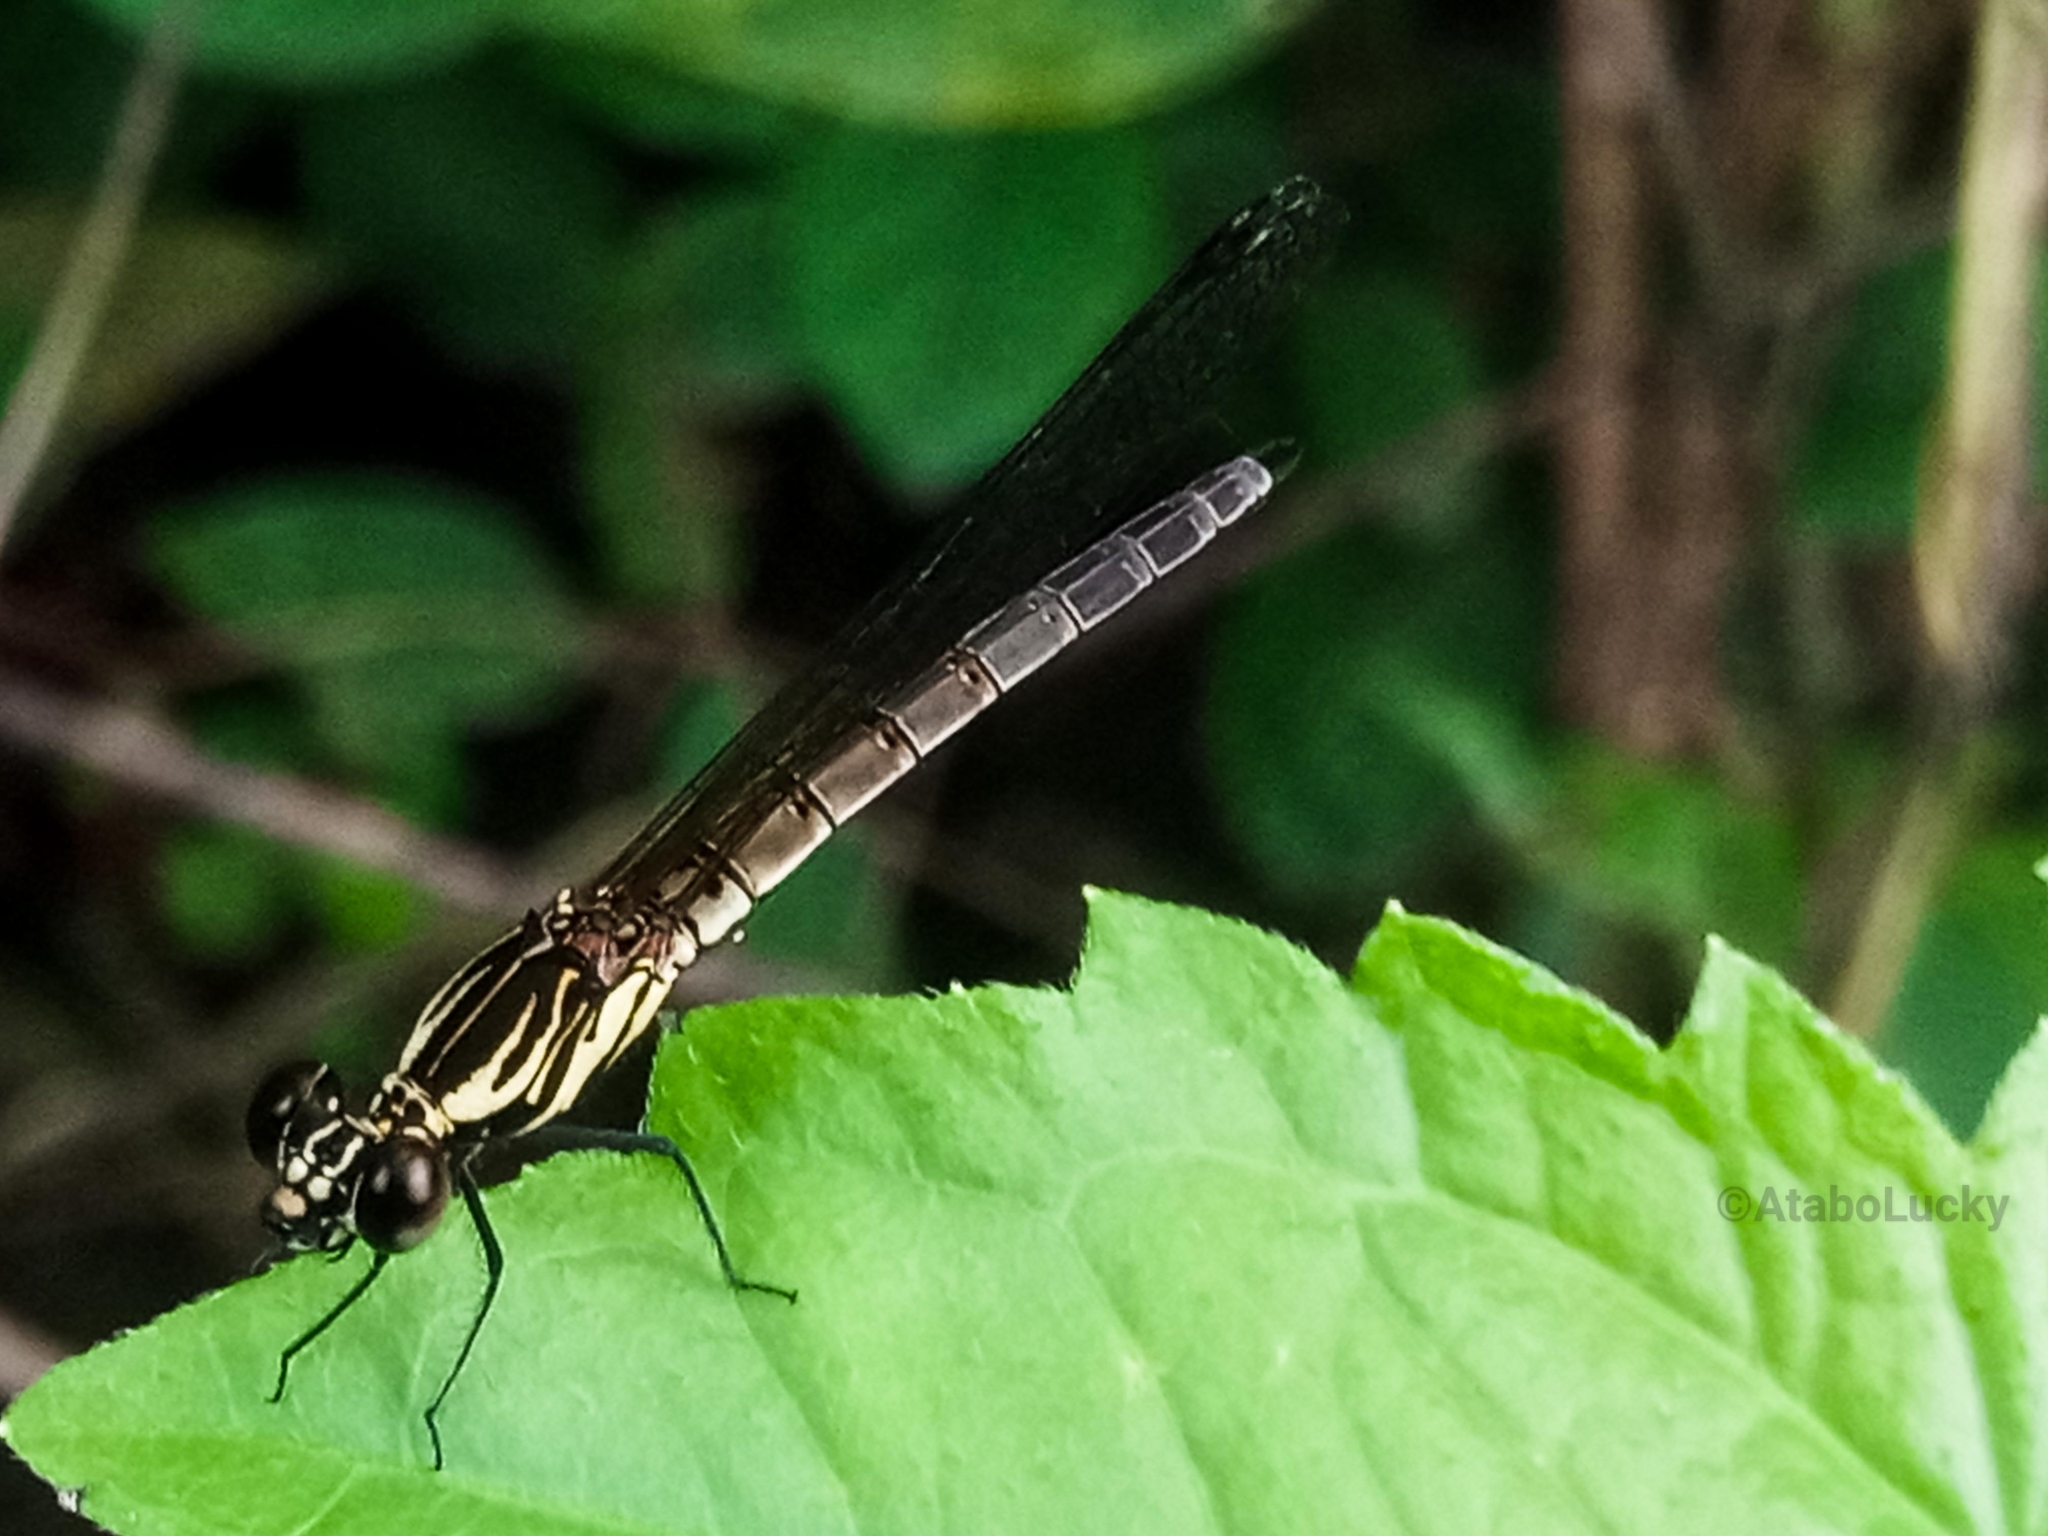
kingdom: Animalia
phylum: Arthropoda
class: Insecta
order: Odonata
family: Chlorocyphidae
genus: Chlorocypha
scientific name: Chlorocypha curta
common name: Blue-tipped jewel
